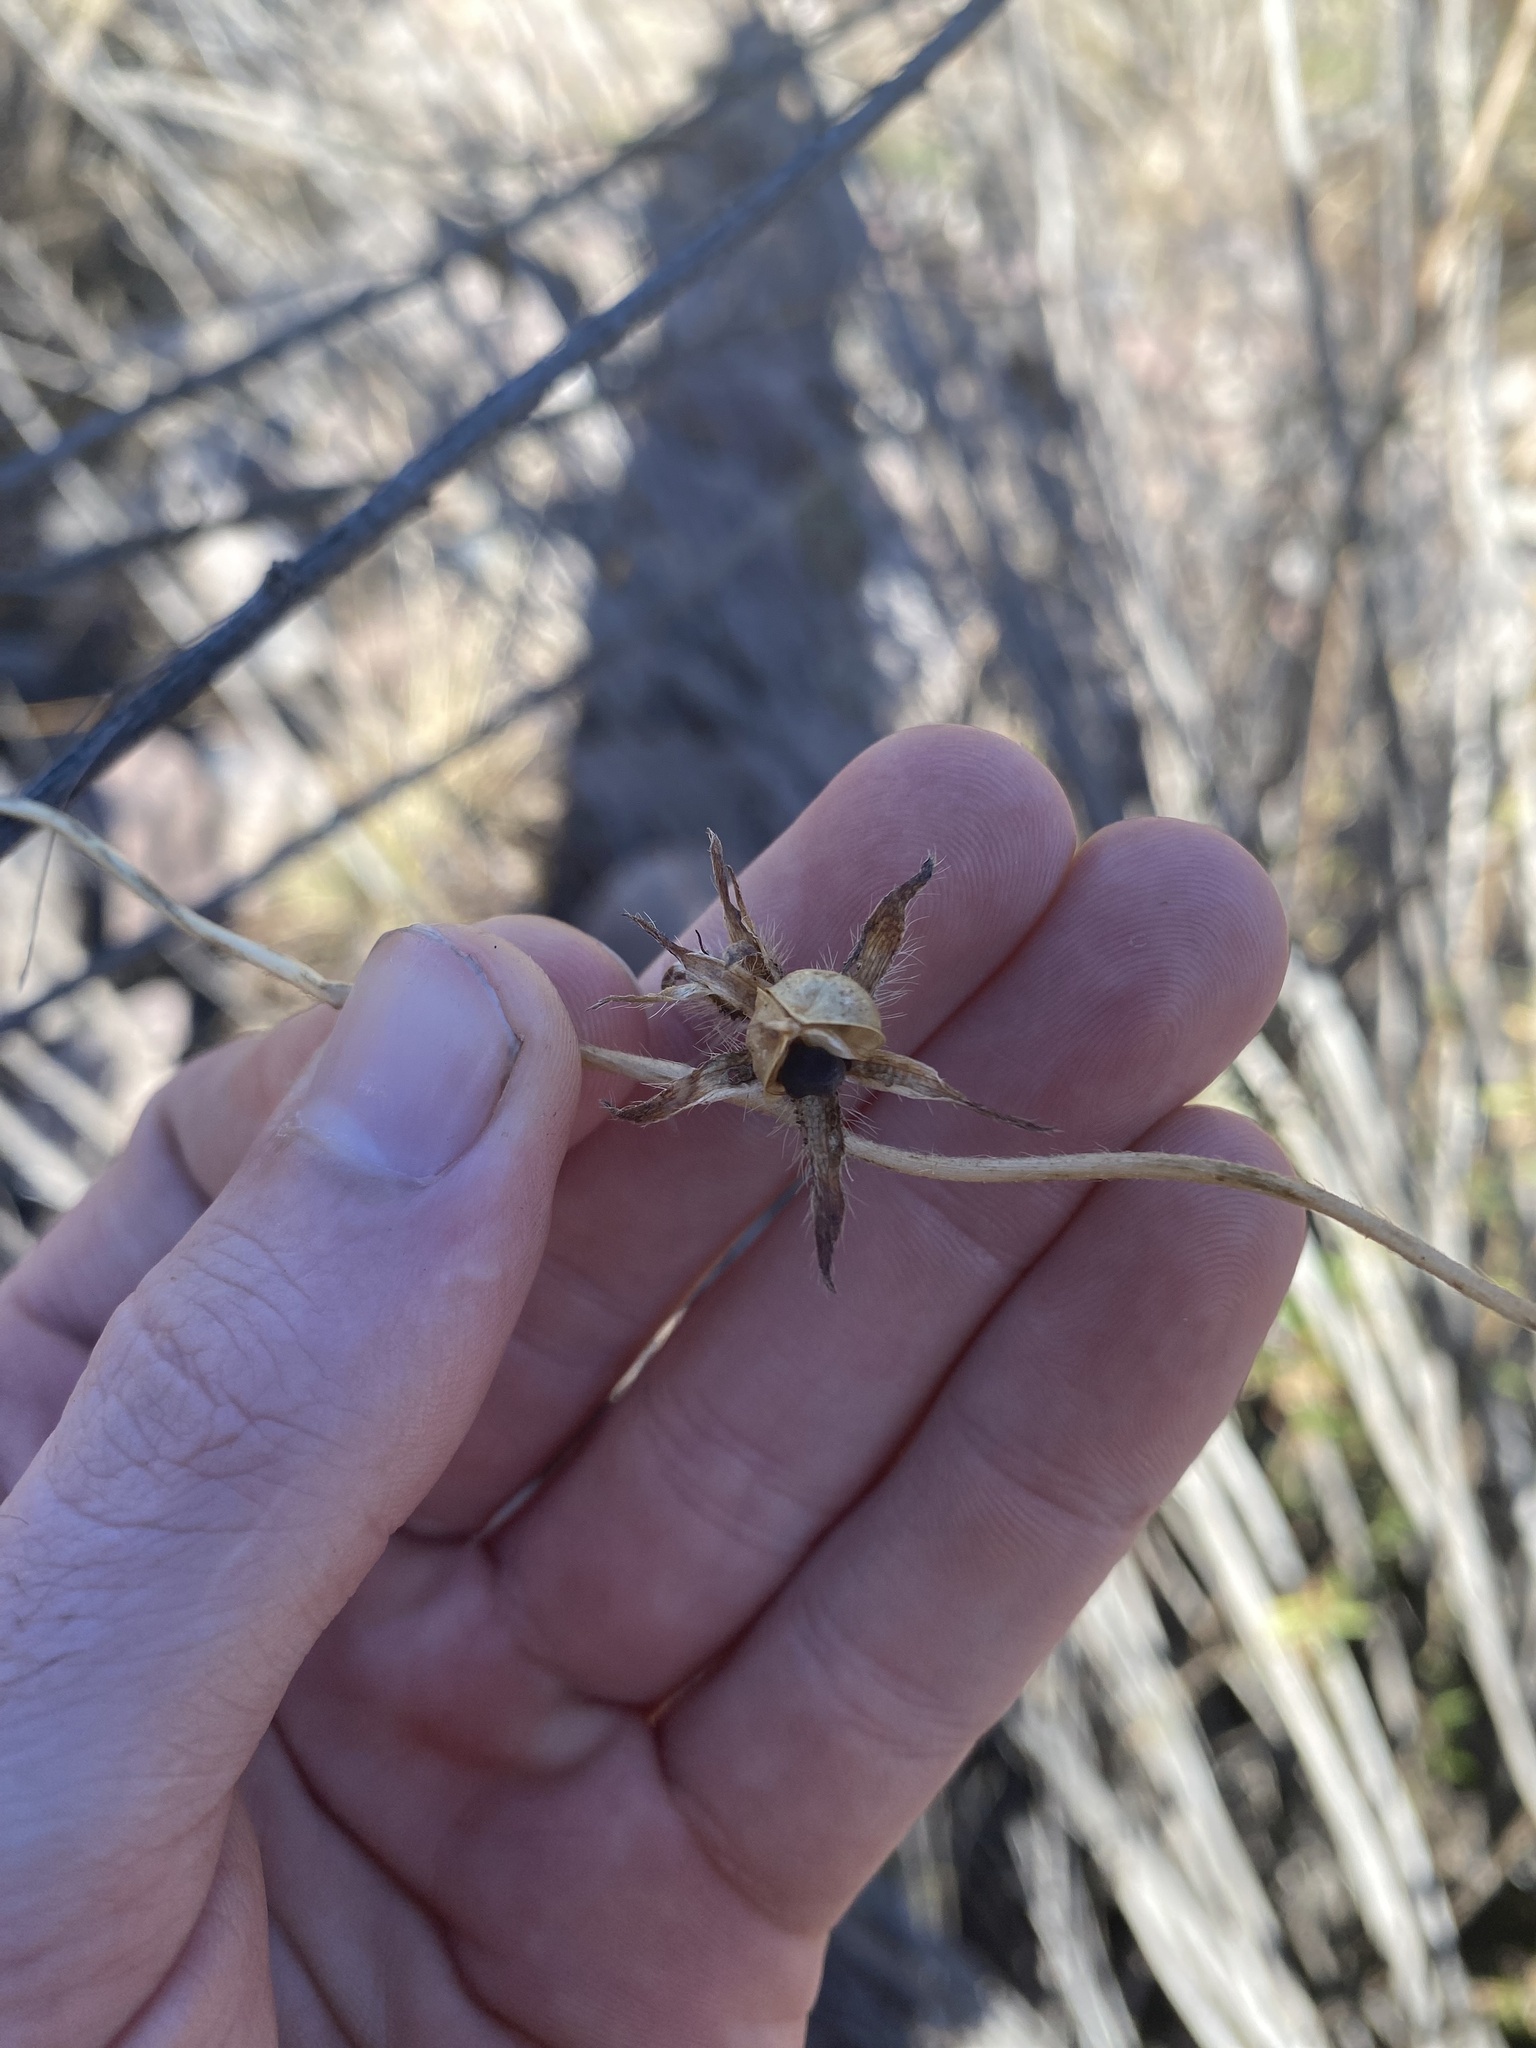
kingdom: Plantae
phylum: Tracheophyta
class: Magnoliopsida
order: Solanales
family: Convolvulaceae
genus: Ipomoea
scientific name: Ipomoea purpurea
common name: Common morning-glory
